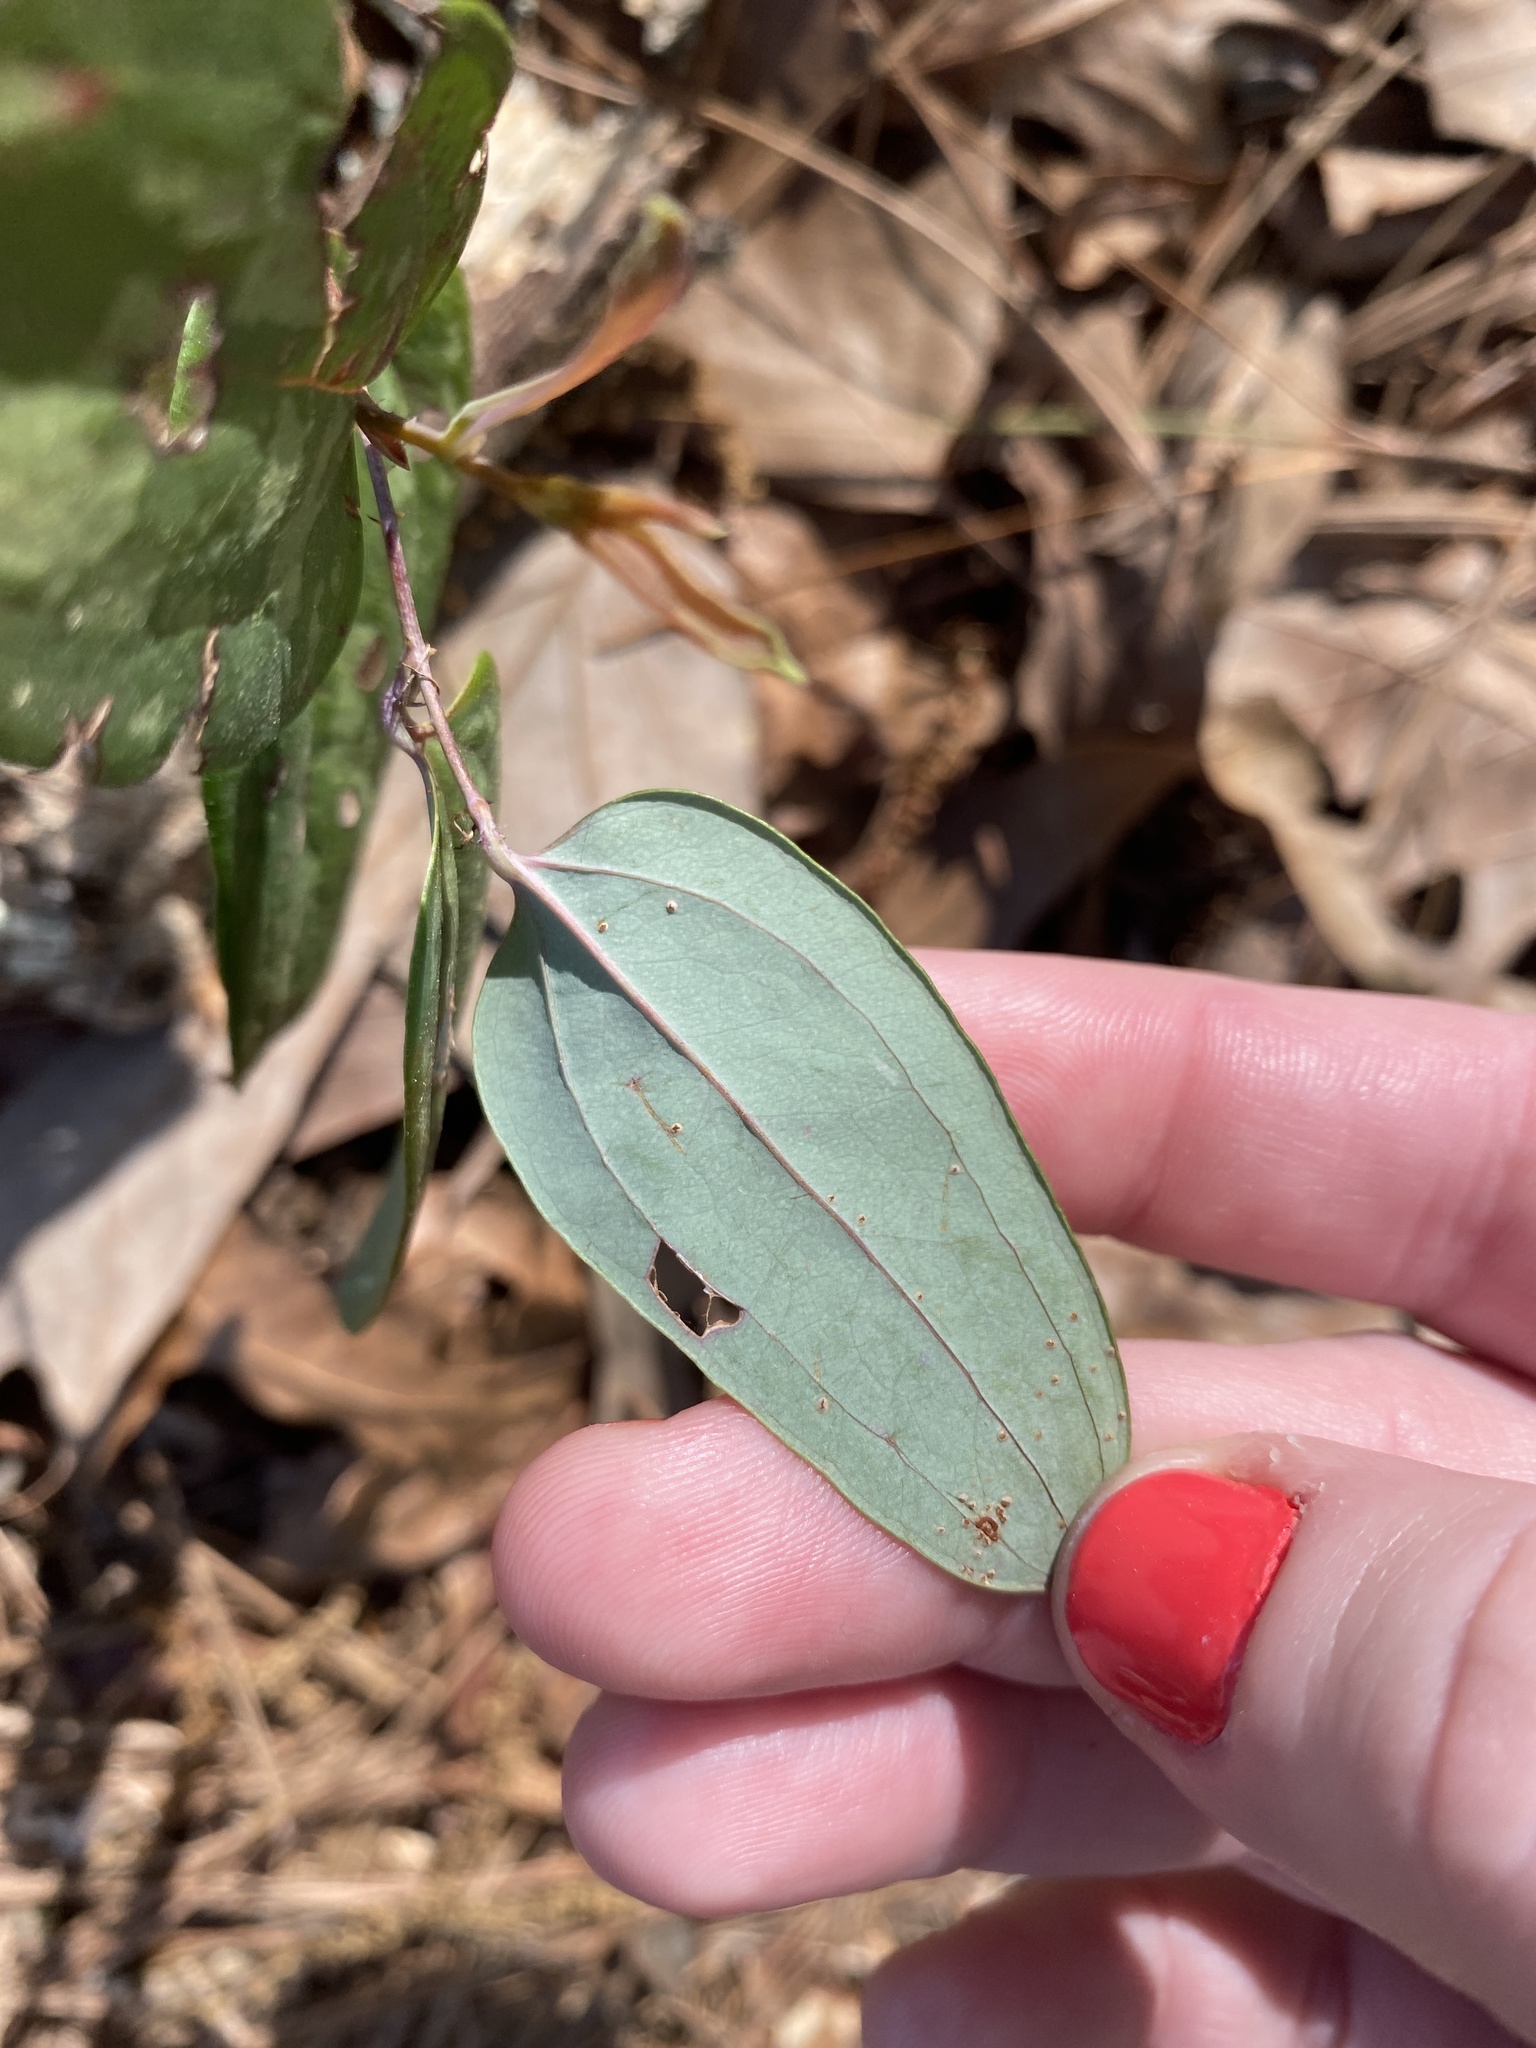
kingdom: Plantae
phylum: Tracheophyta
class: Liliopsida
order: Liliales
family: Smilacaceae
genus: Smilax
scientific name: Smilax glauca
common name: Cat greenbrier
